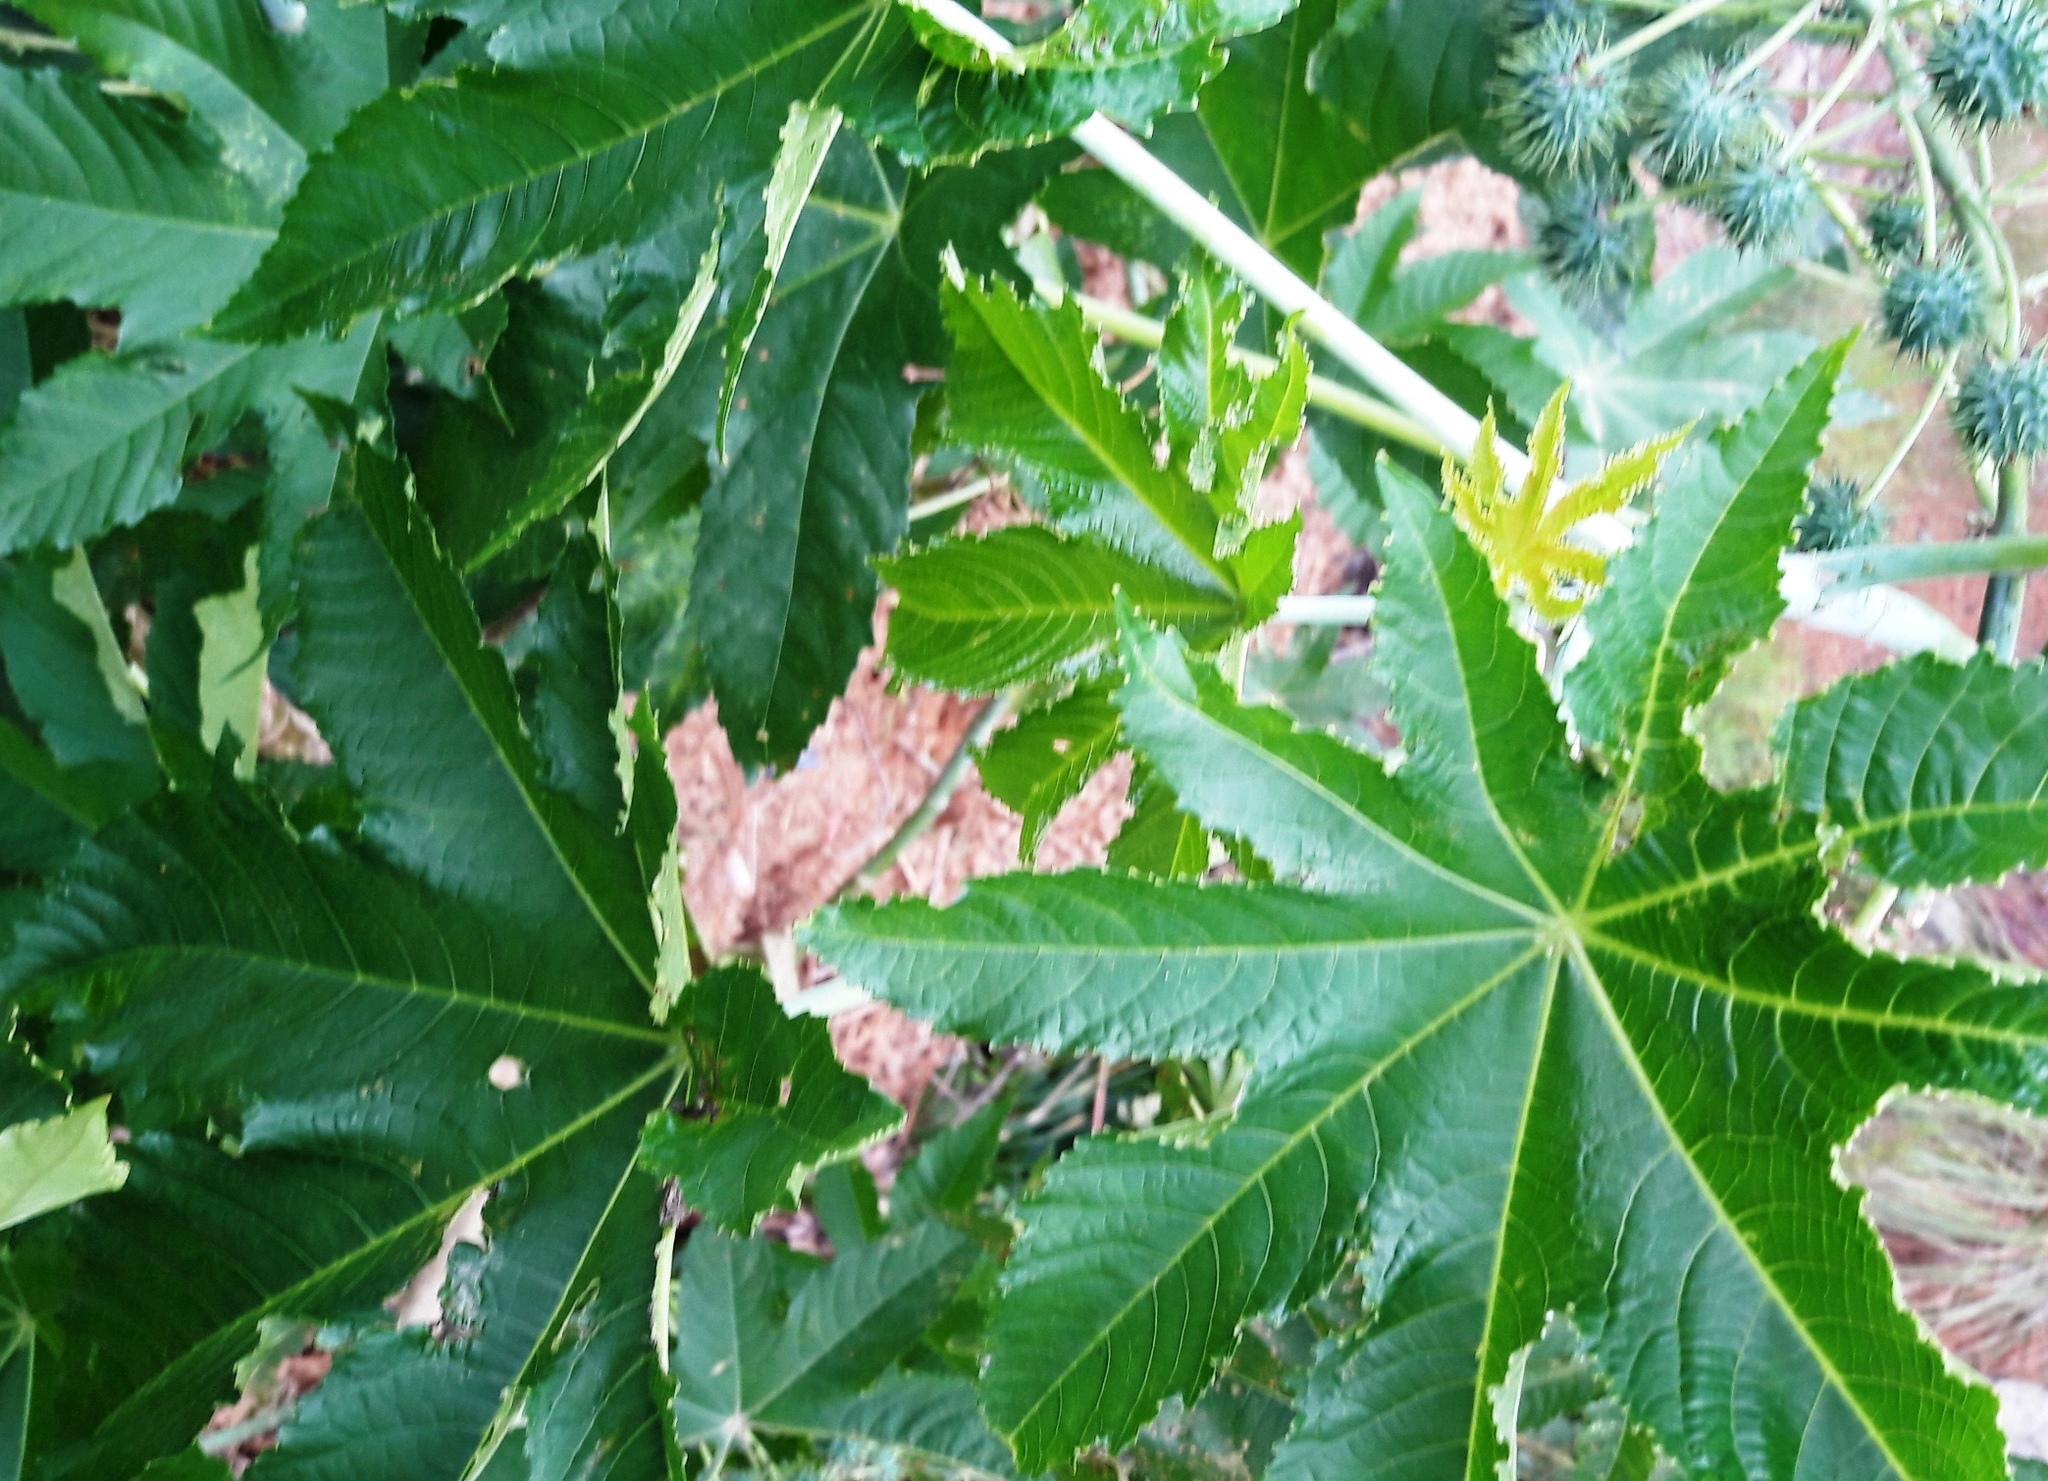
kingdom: Plantae
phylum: Tracheophyta
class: Magnoliopsida
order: Malpighiales
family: Euphorbiaceae
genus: Ricinus
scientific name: Ricinus communis
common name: Castor-oil-plant
